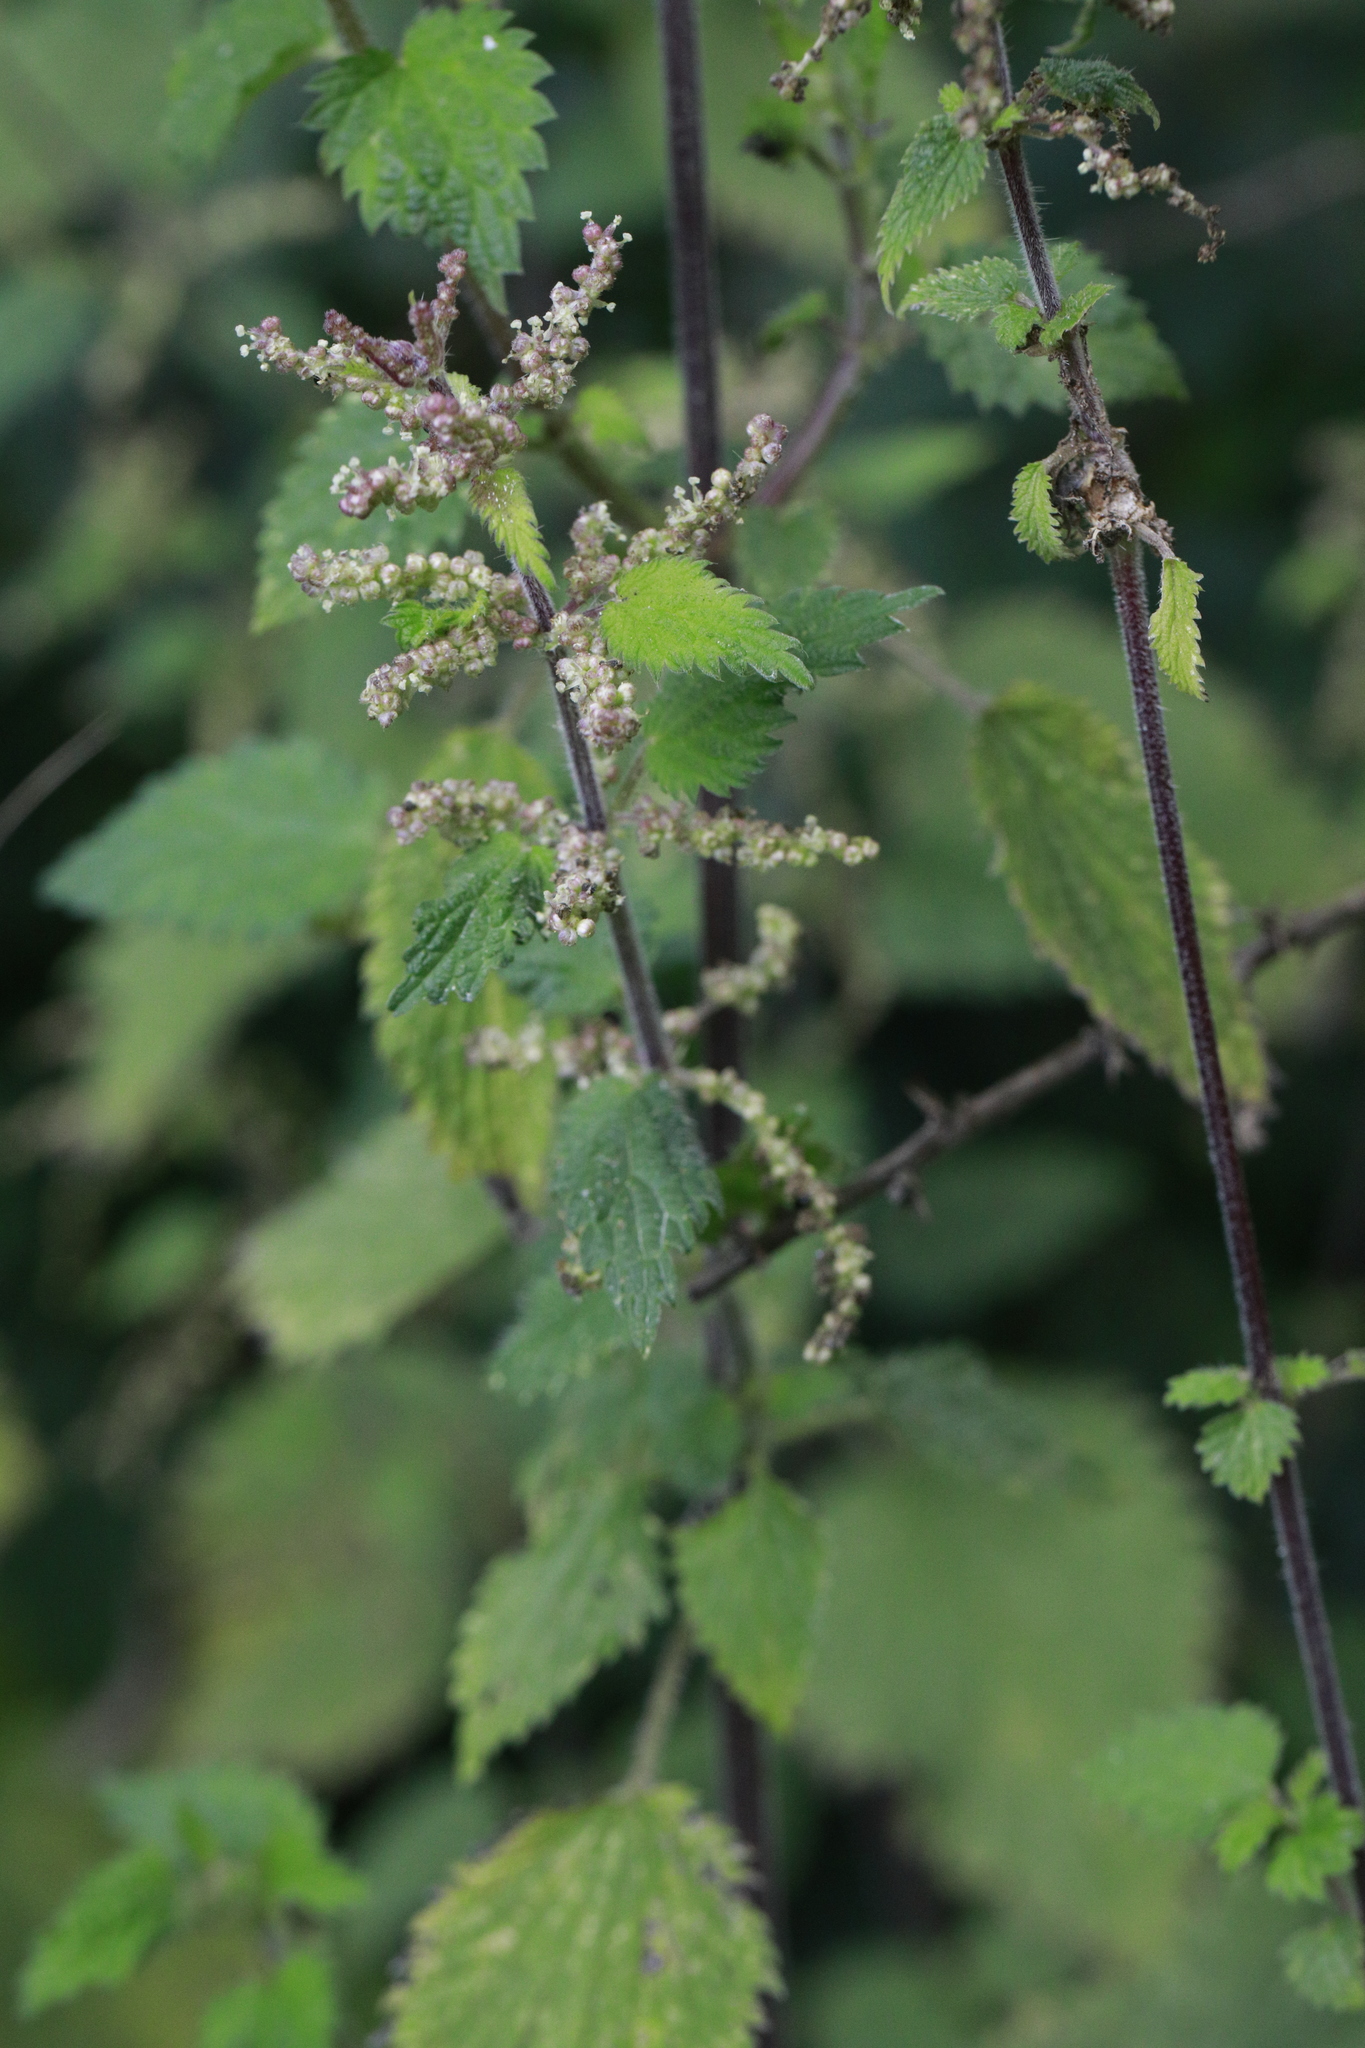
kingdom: Plantae
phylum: Tracheophyta
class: Magnoliopsida
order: Rosales
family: Urticaceae
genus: Urtica
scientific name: Urtica dioica
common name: Common nettle
